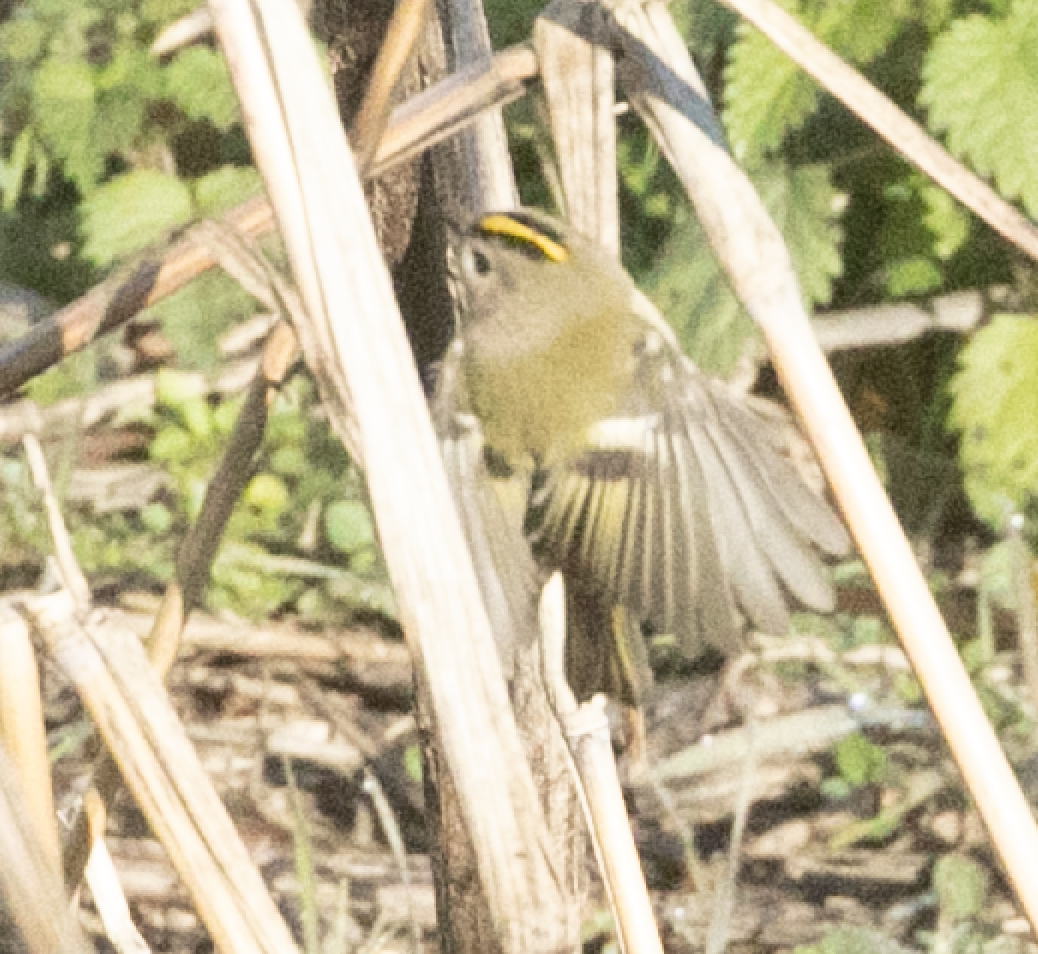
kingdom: Animalia
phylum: Chordata
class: Aves
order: Passeriformes
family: Regulidae
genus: Regulus
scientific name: Regulus regulus
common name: Goldcrest
